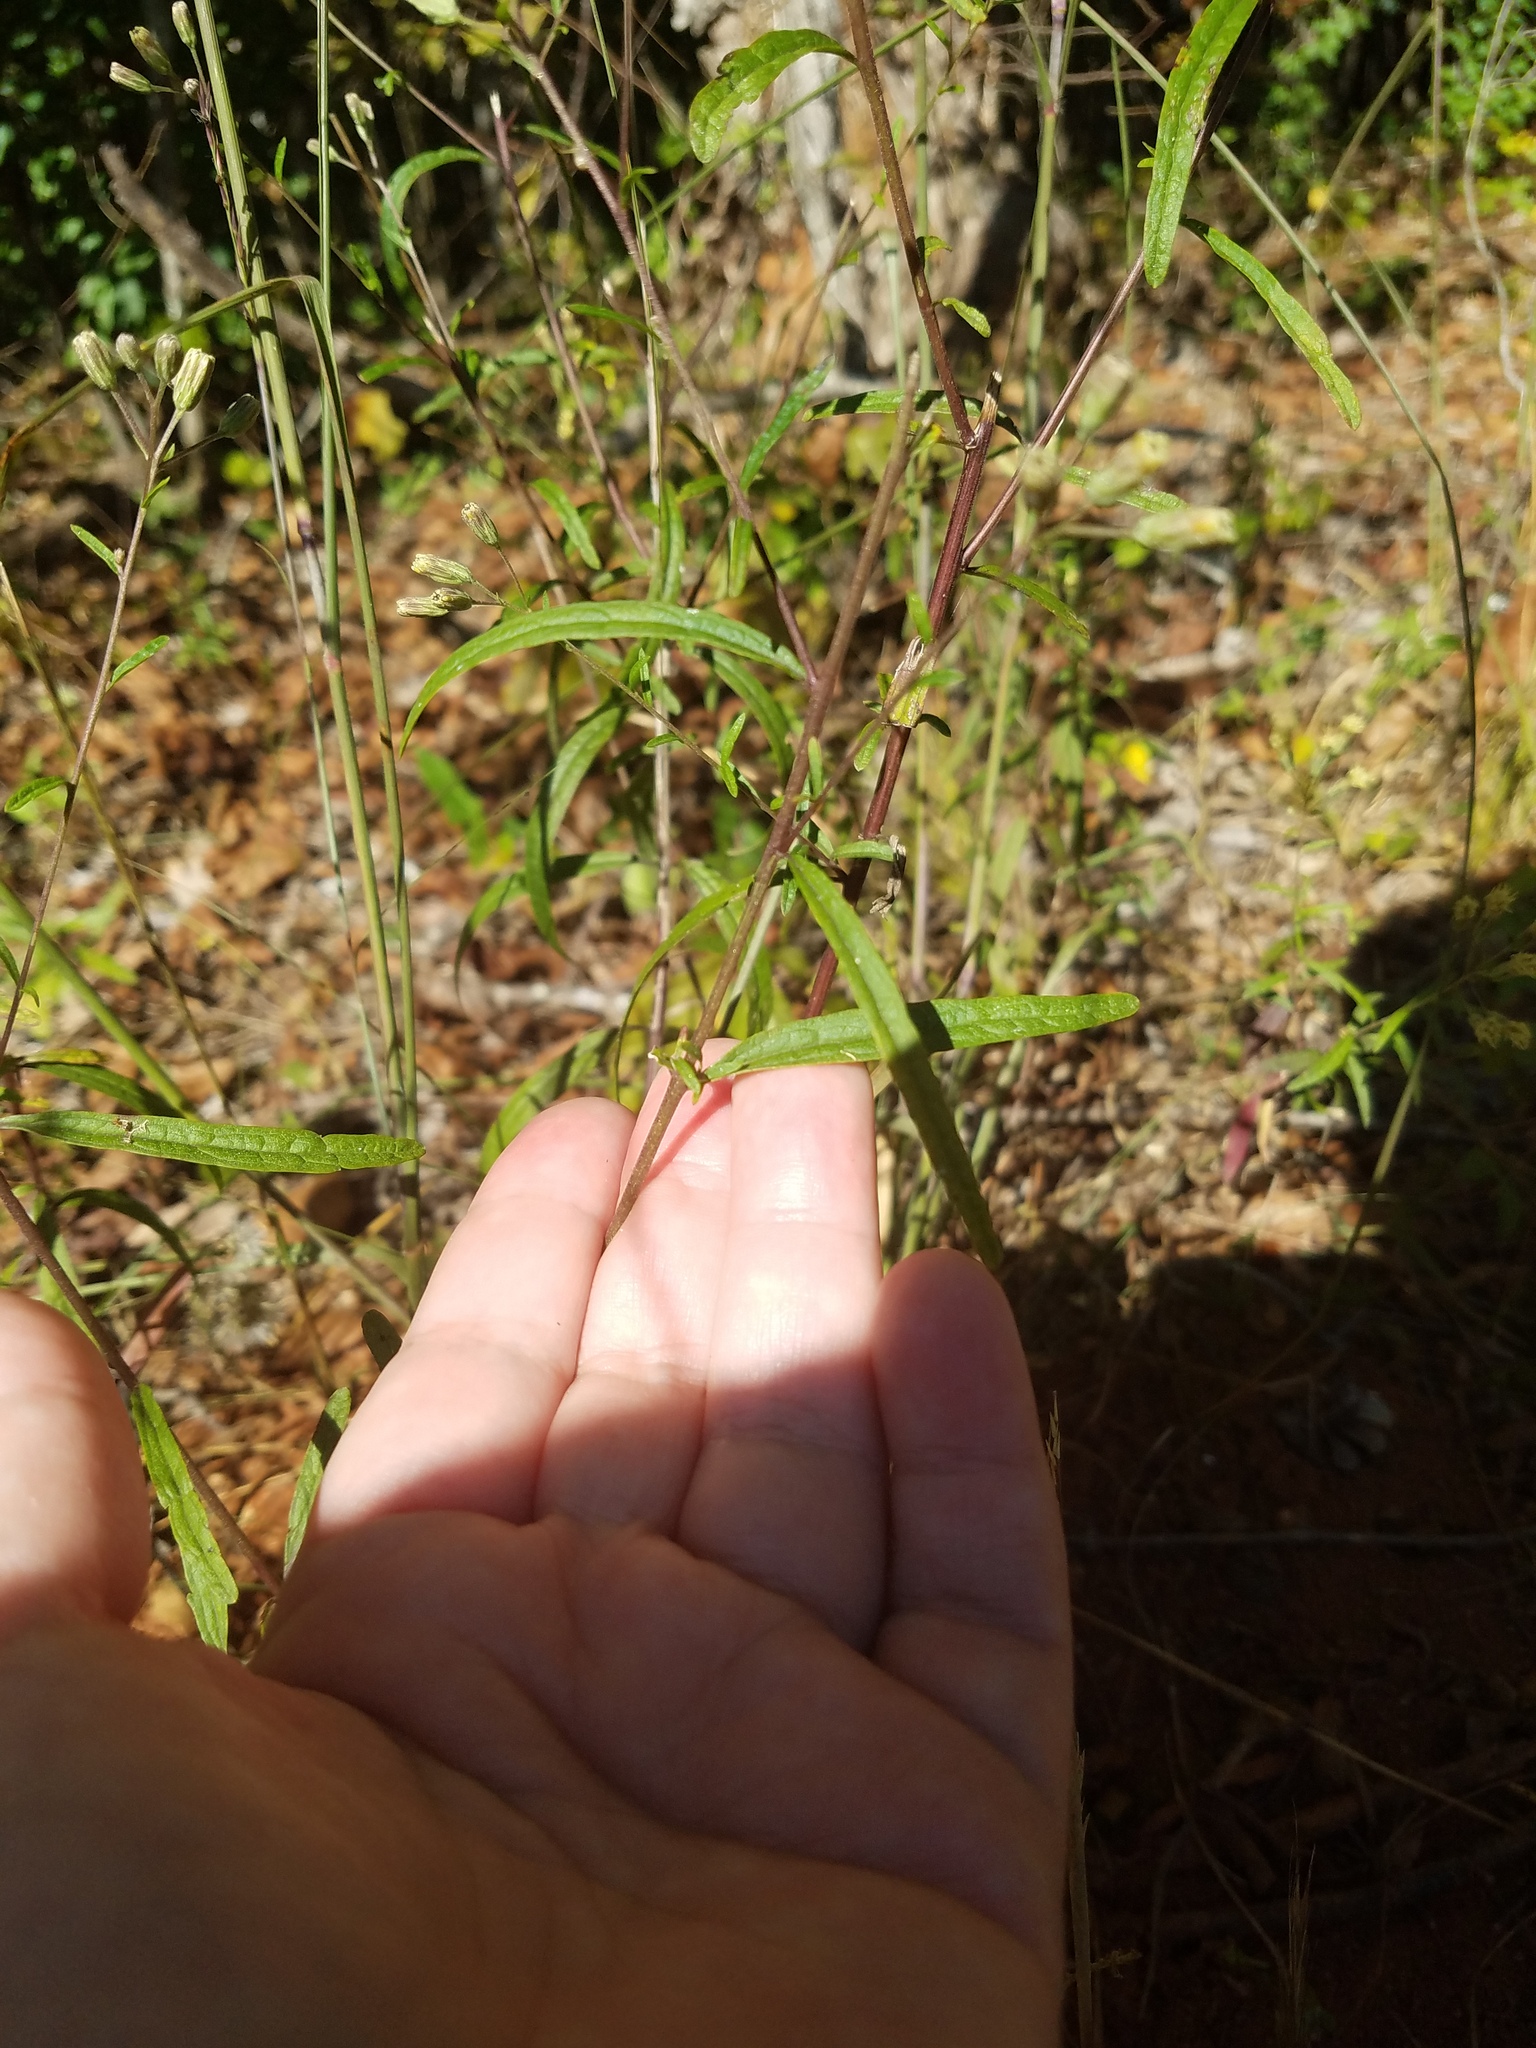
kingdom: Plantae
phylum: Tracheophyta
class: Magnoliopsida
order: Asterales
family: Asteraceae
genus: Brickellia
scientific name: Brickellia eupatorioides
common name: False boneset
